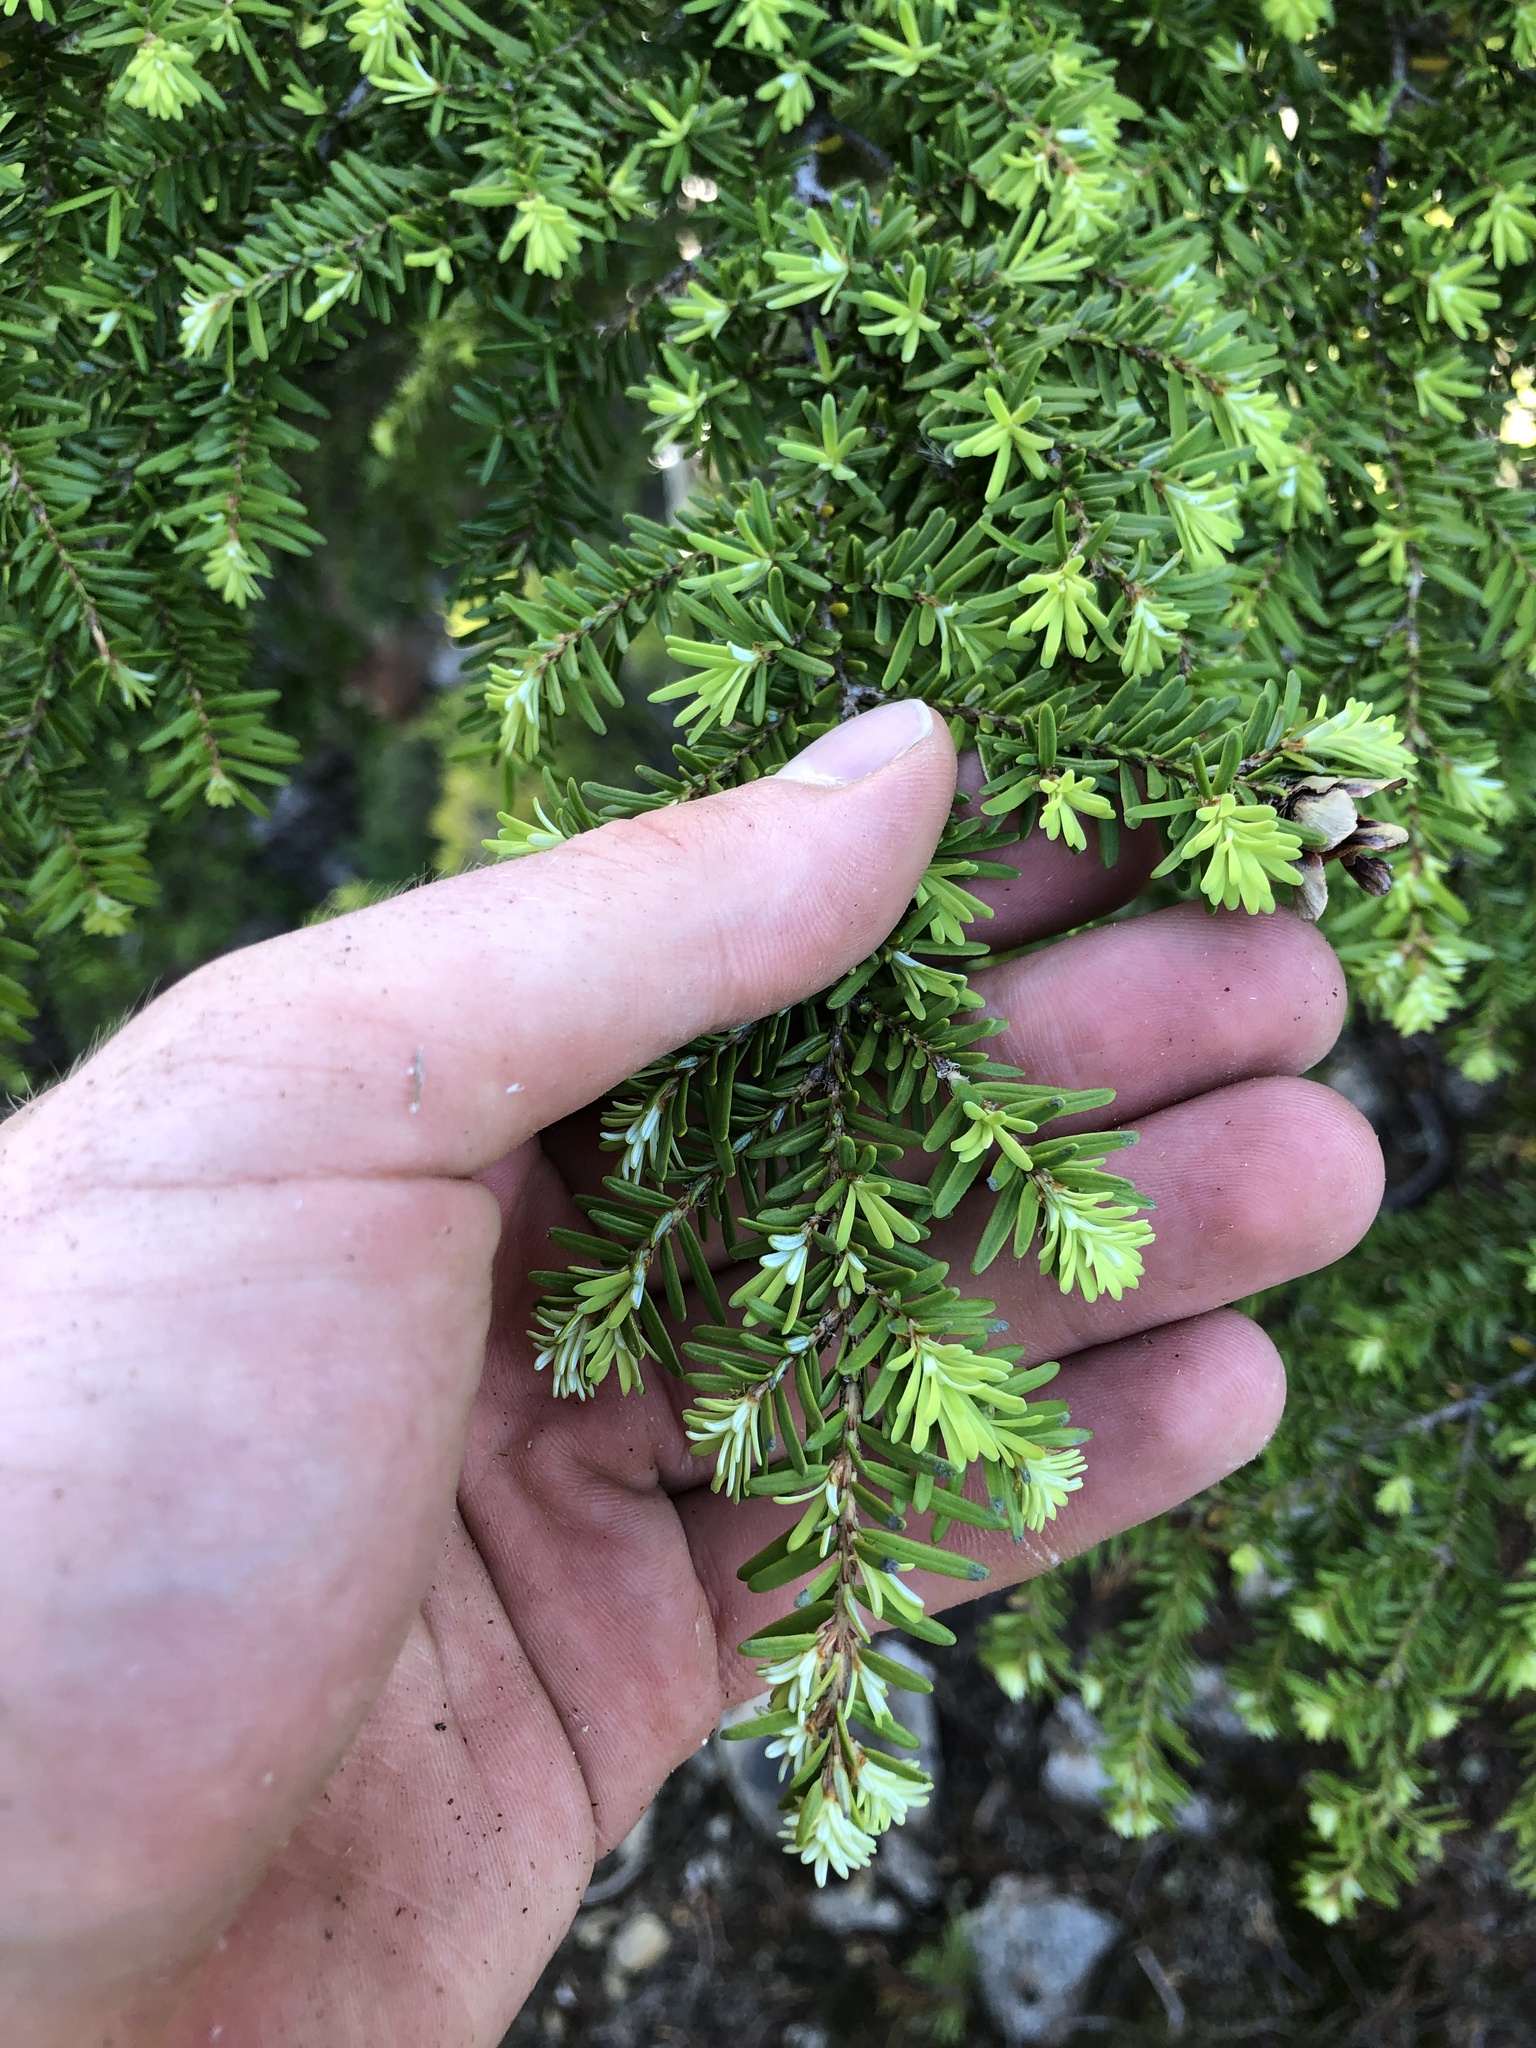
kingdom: Plantae
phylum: Tracheophyta
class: Pinopsida
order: Pinales
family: Pinaceae
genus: Tsuga
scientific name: Tsuga heterophylla
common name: Western hemlock
